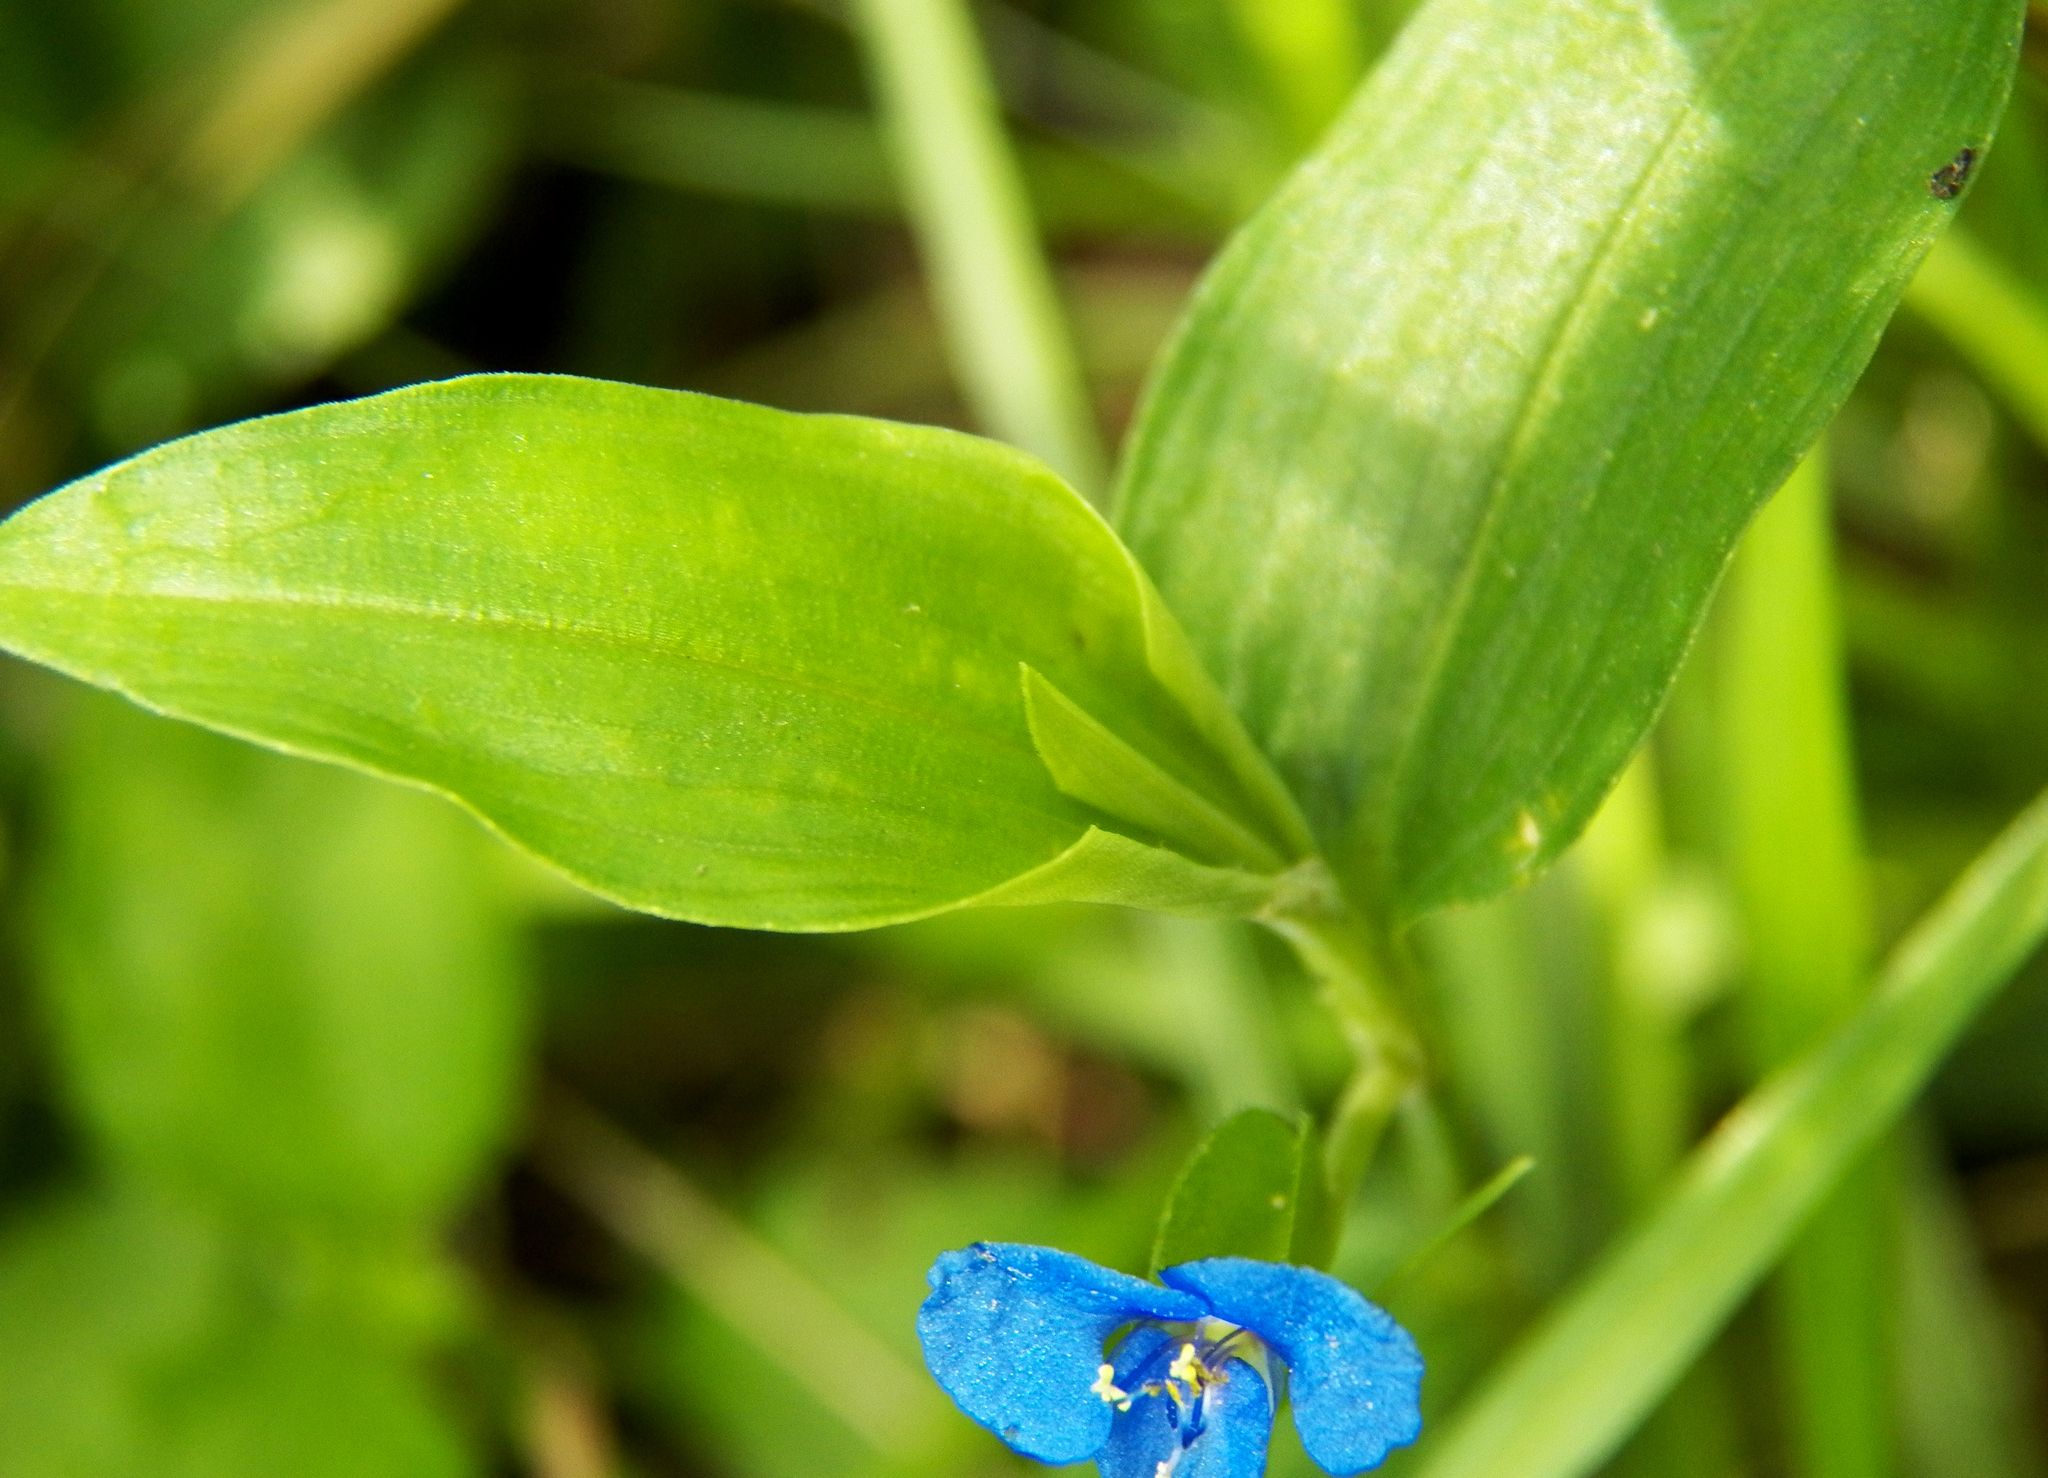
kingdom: Plantae
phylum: Tracheophyta
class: Liliopsida
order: Commelinales
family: Commelinaceae
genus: Commelina
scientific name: Commelina diffusa
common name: Climbing dayflower
